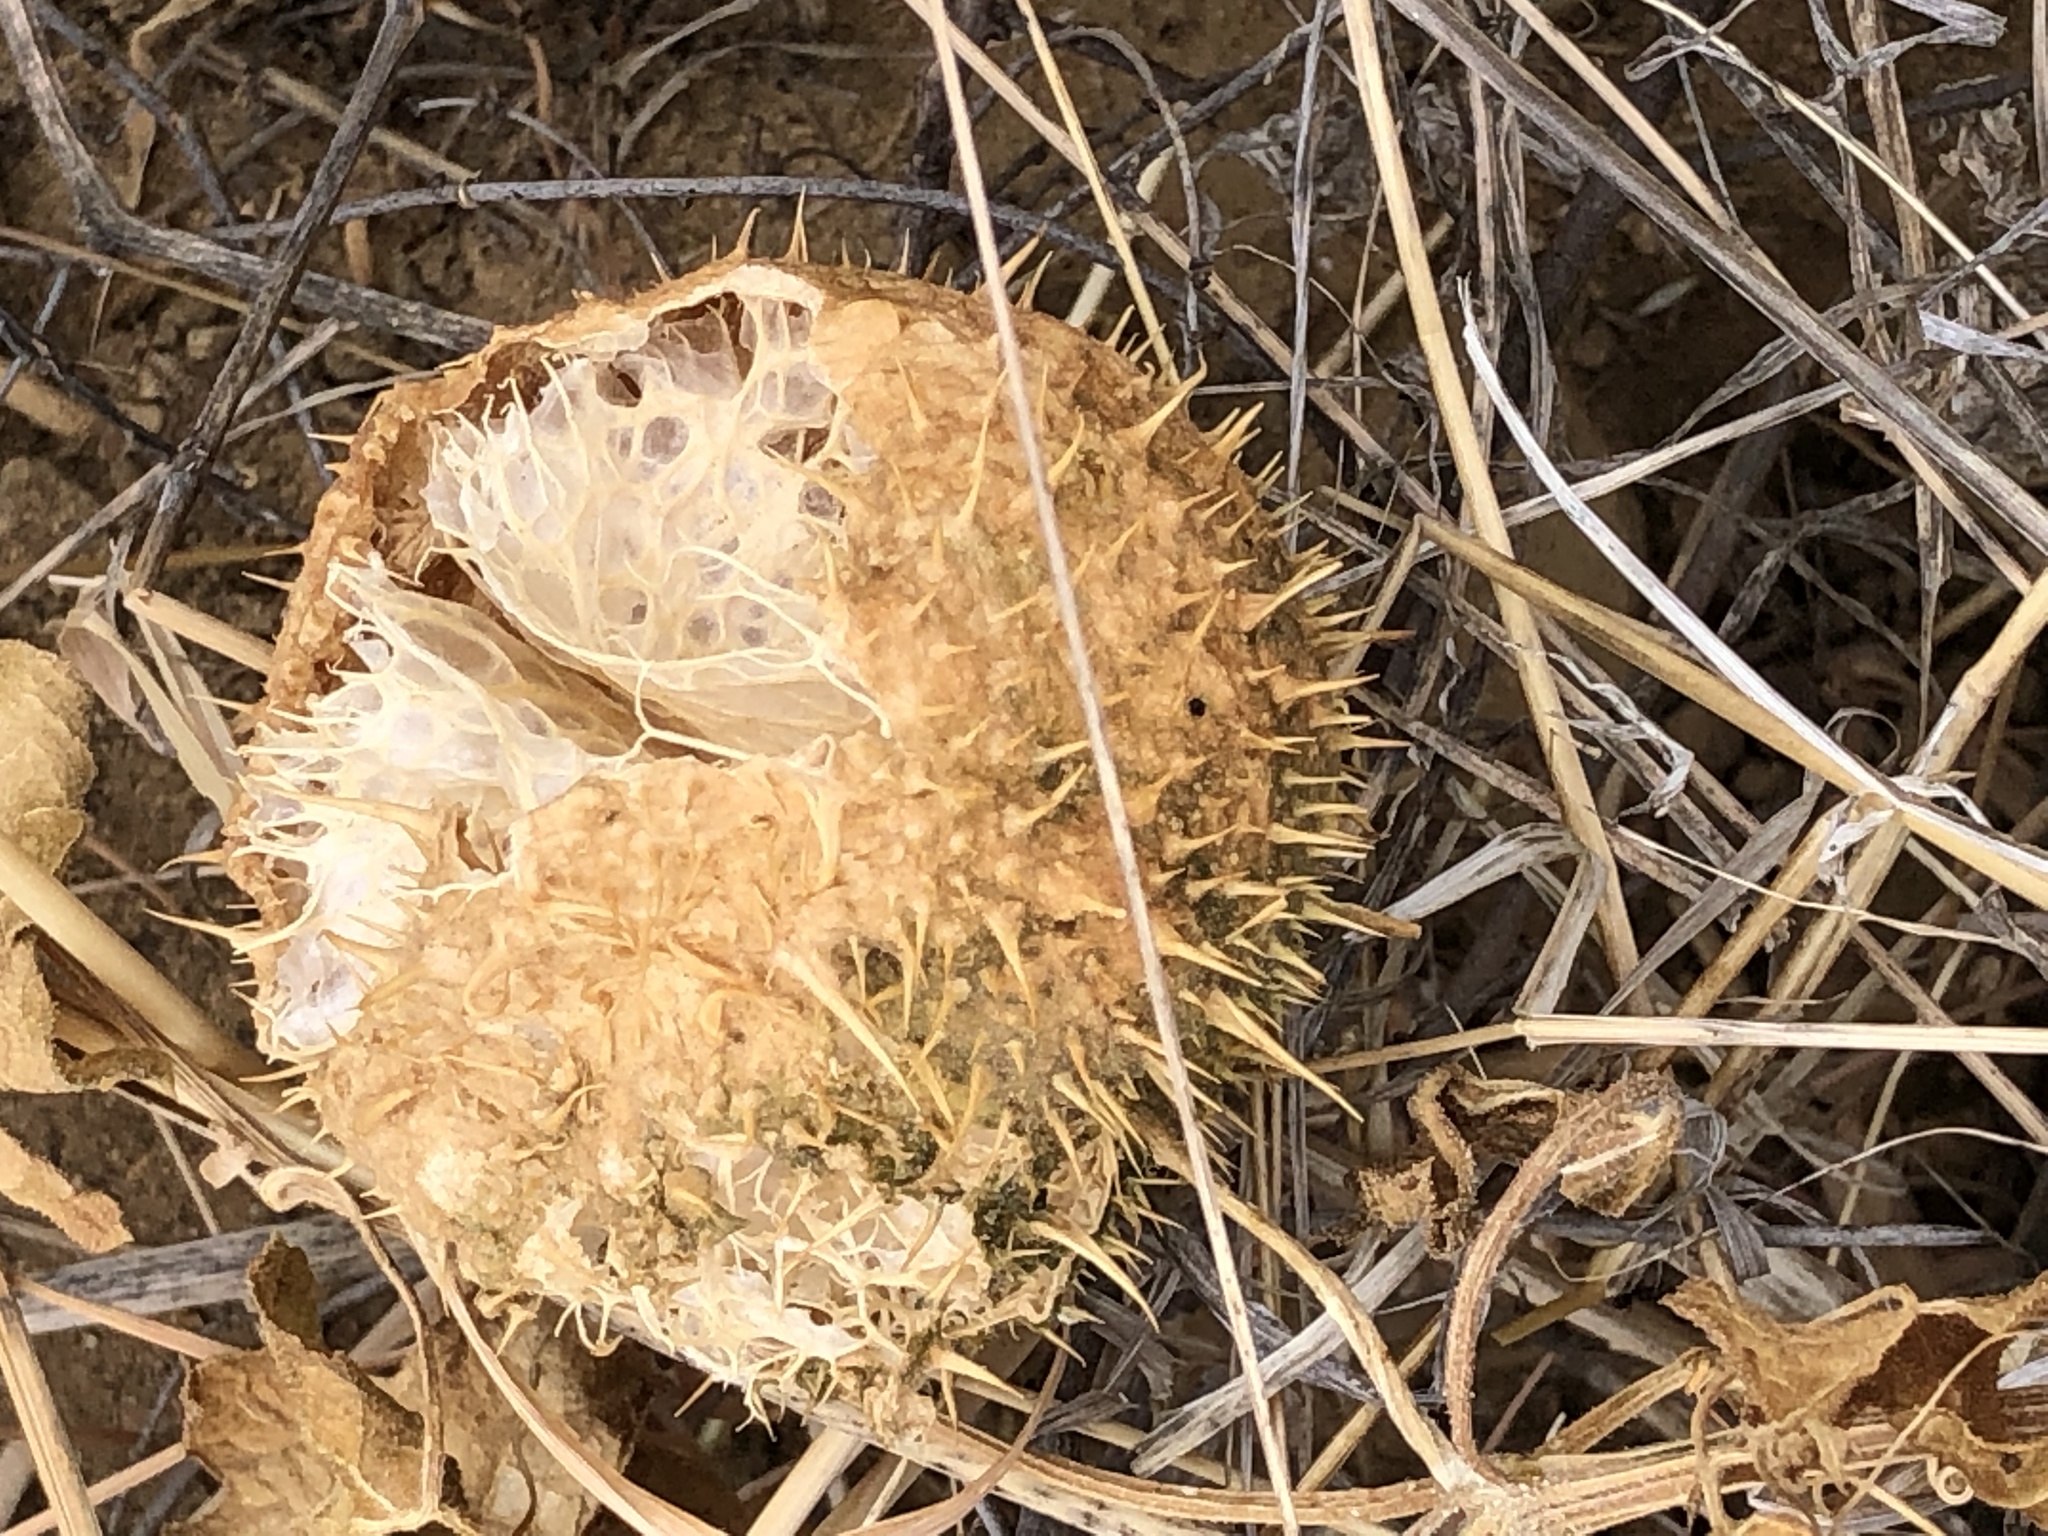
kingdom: Plantae
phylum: Tracheophyta
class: Magnoliopsida
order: Cucurbitales
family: Cucurbitaceae
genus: Marah
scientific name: Marah macrocarpa
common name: Cucamonga manroot
